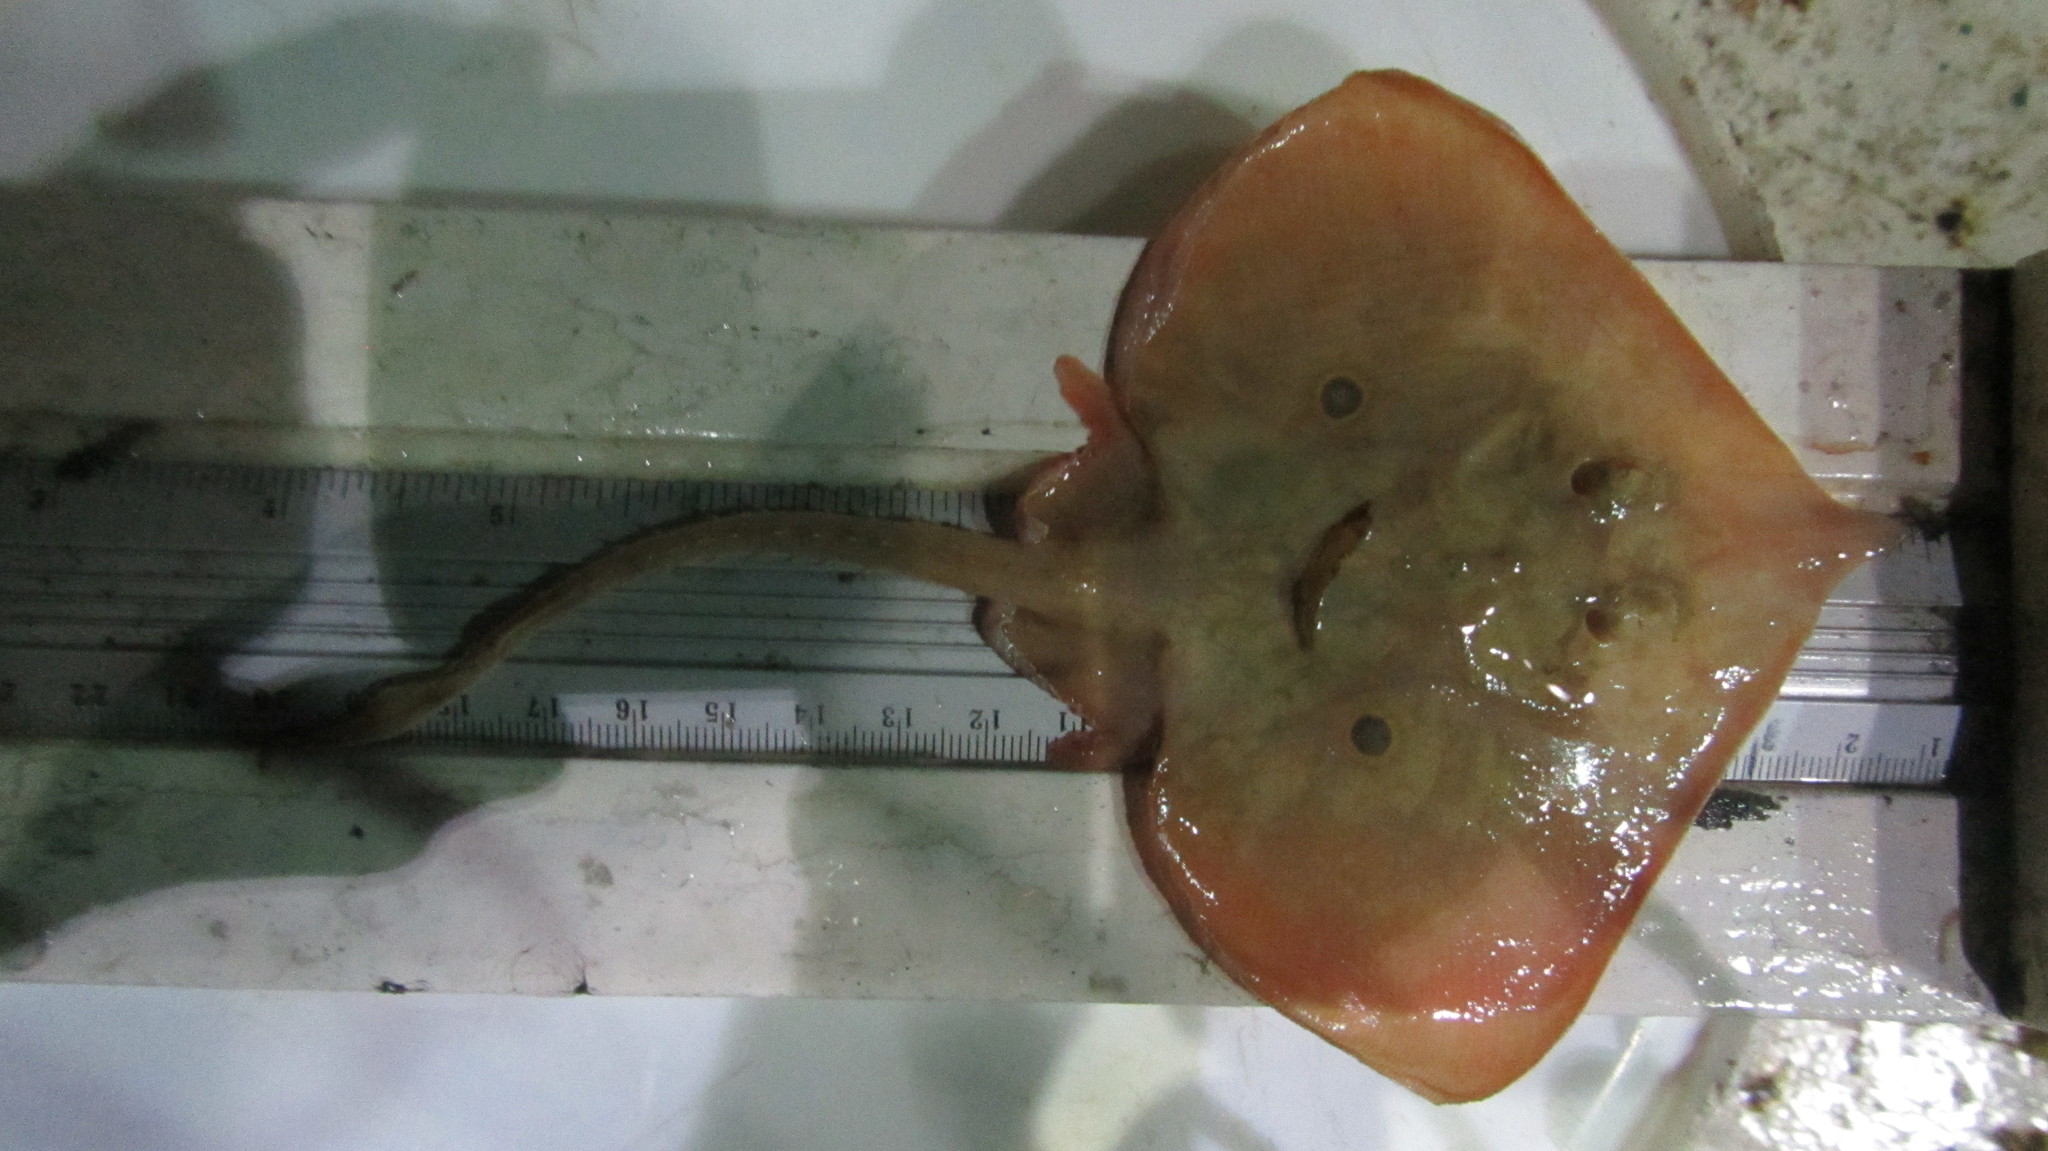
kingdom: Animalia
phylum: Chordata
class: Elasmobranchii
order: Rajiformes
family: Rajidae
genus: Rostroraja
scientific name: Rostroraja texana
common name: Roundel skate
